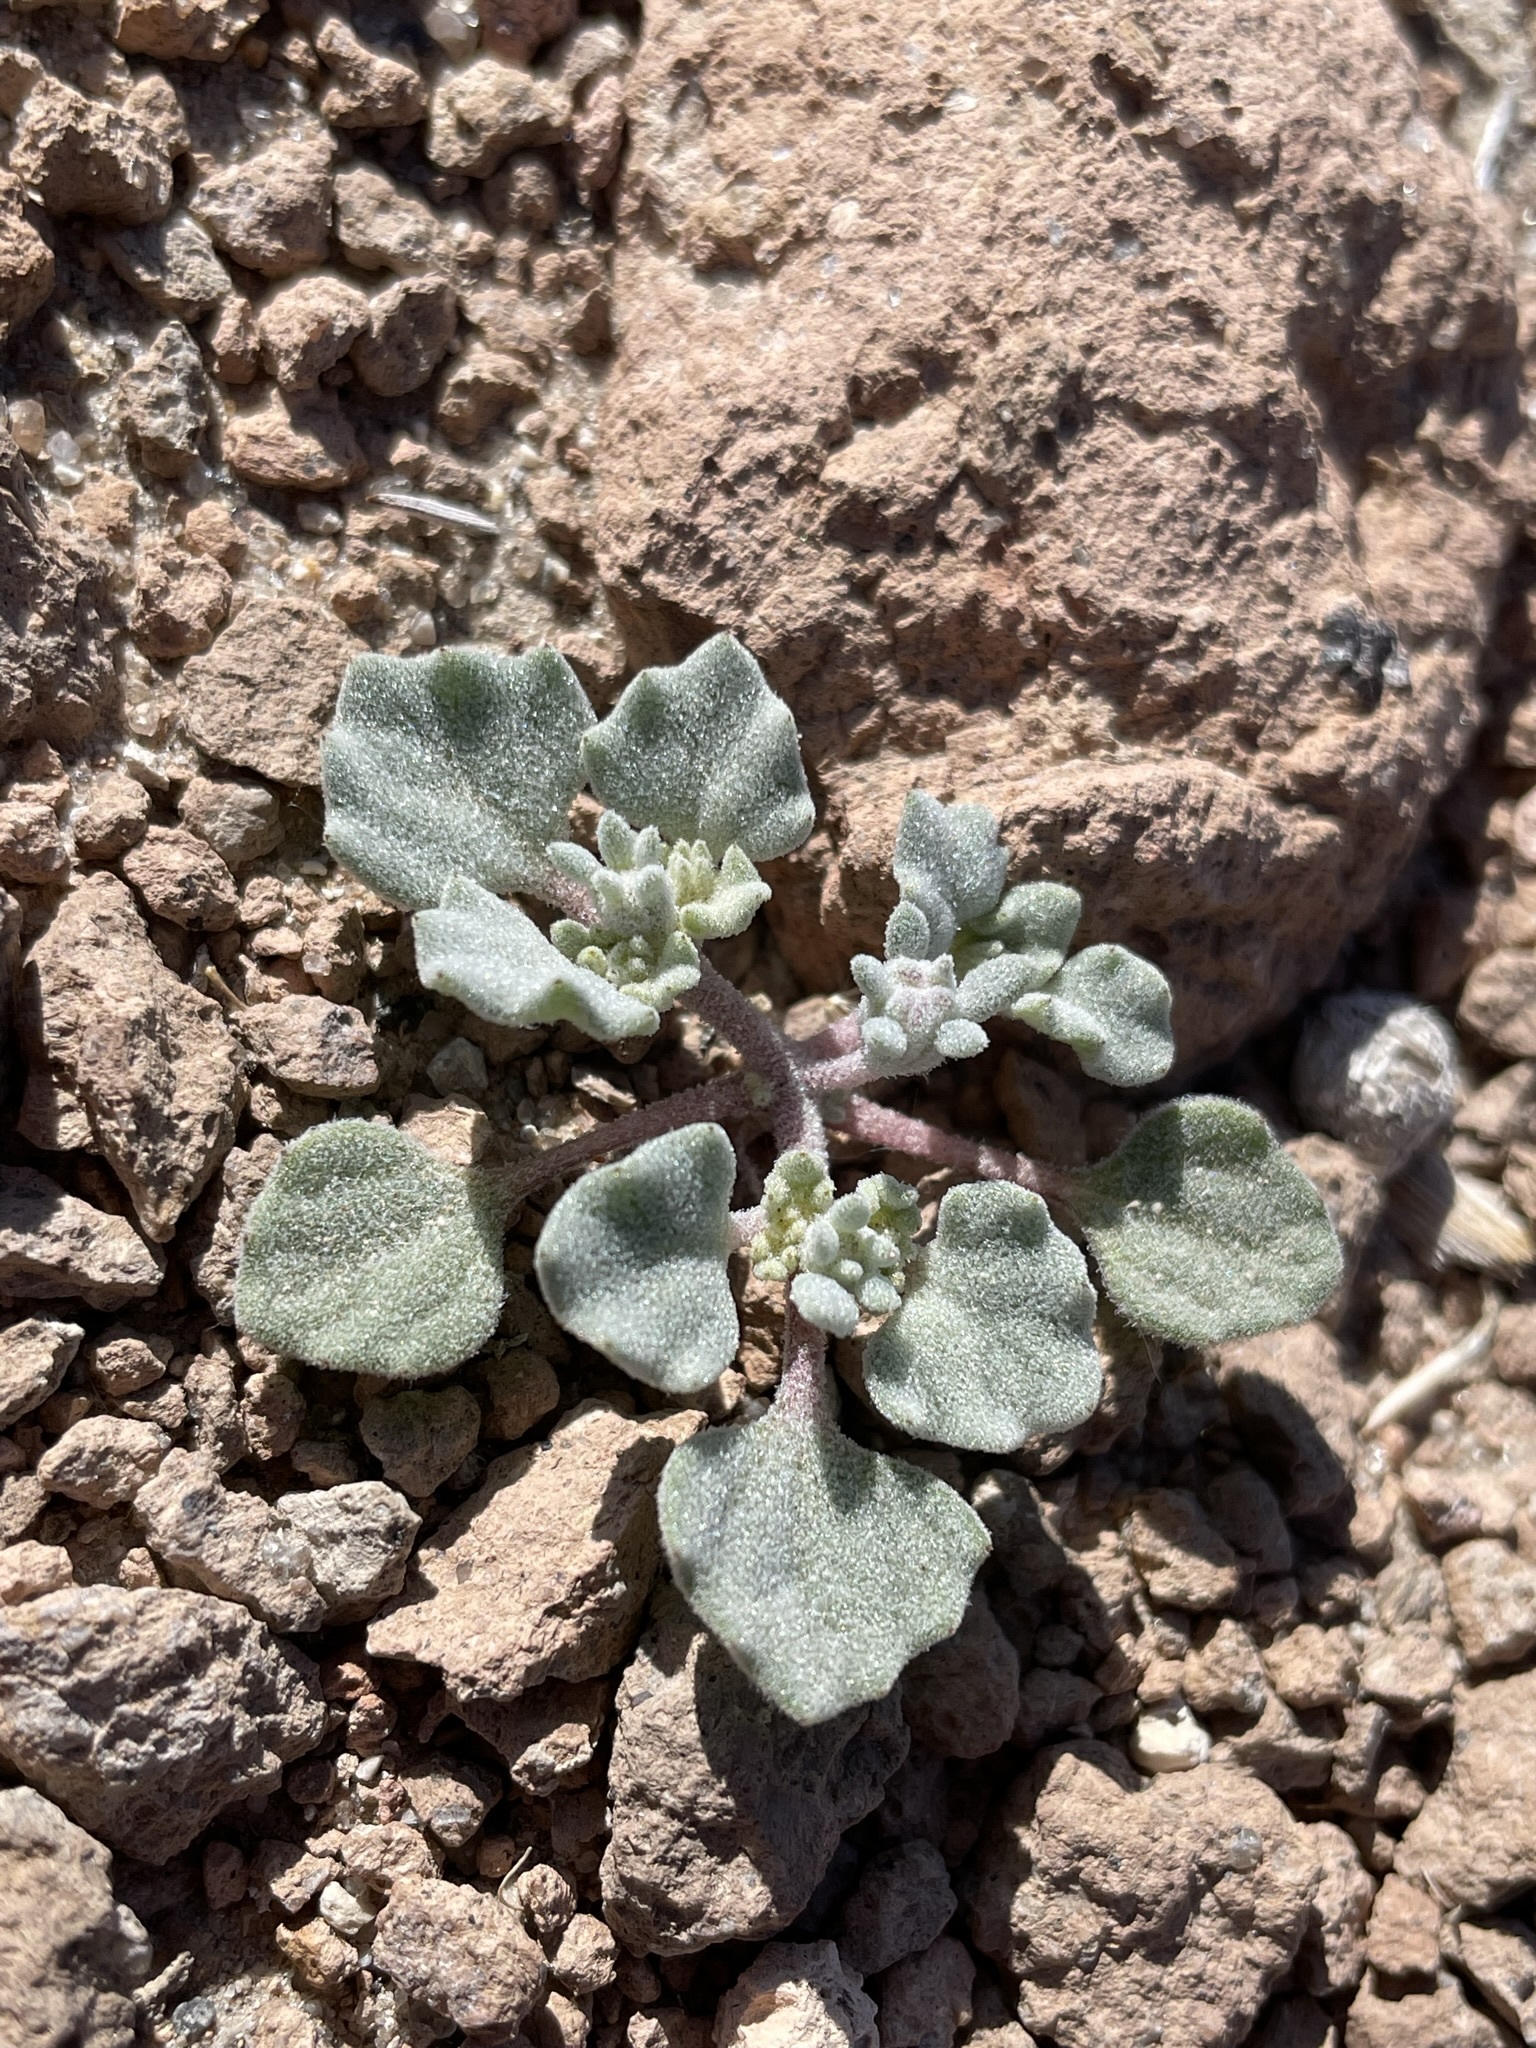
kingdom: Plantae
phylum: Tracheophyta
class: Magnoliopsida
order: Asterales
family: Asteraceae
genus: Psathyrotes
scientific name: Psathyrotes annua
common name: Mealy rosettes
